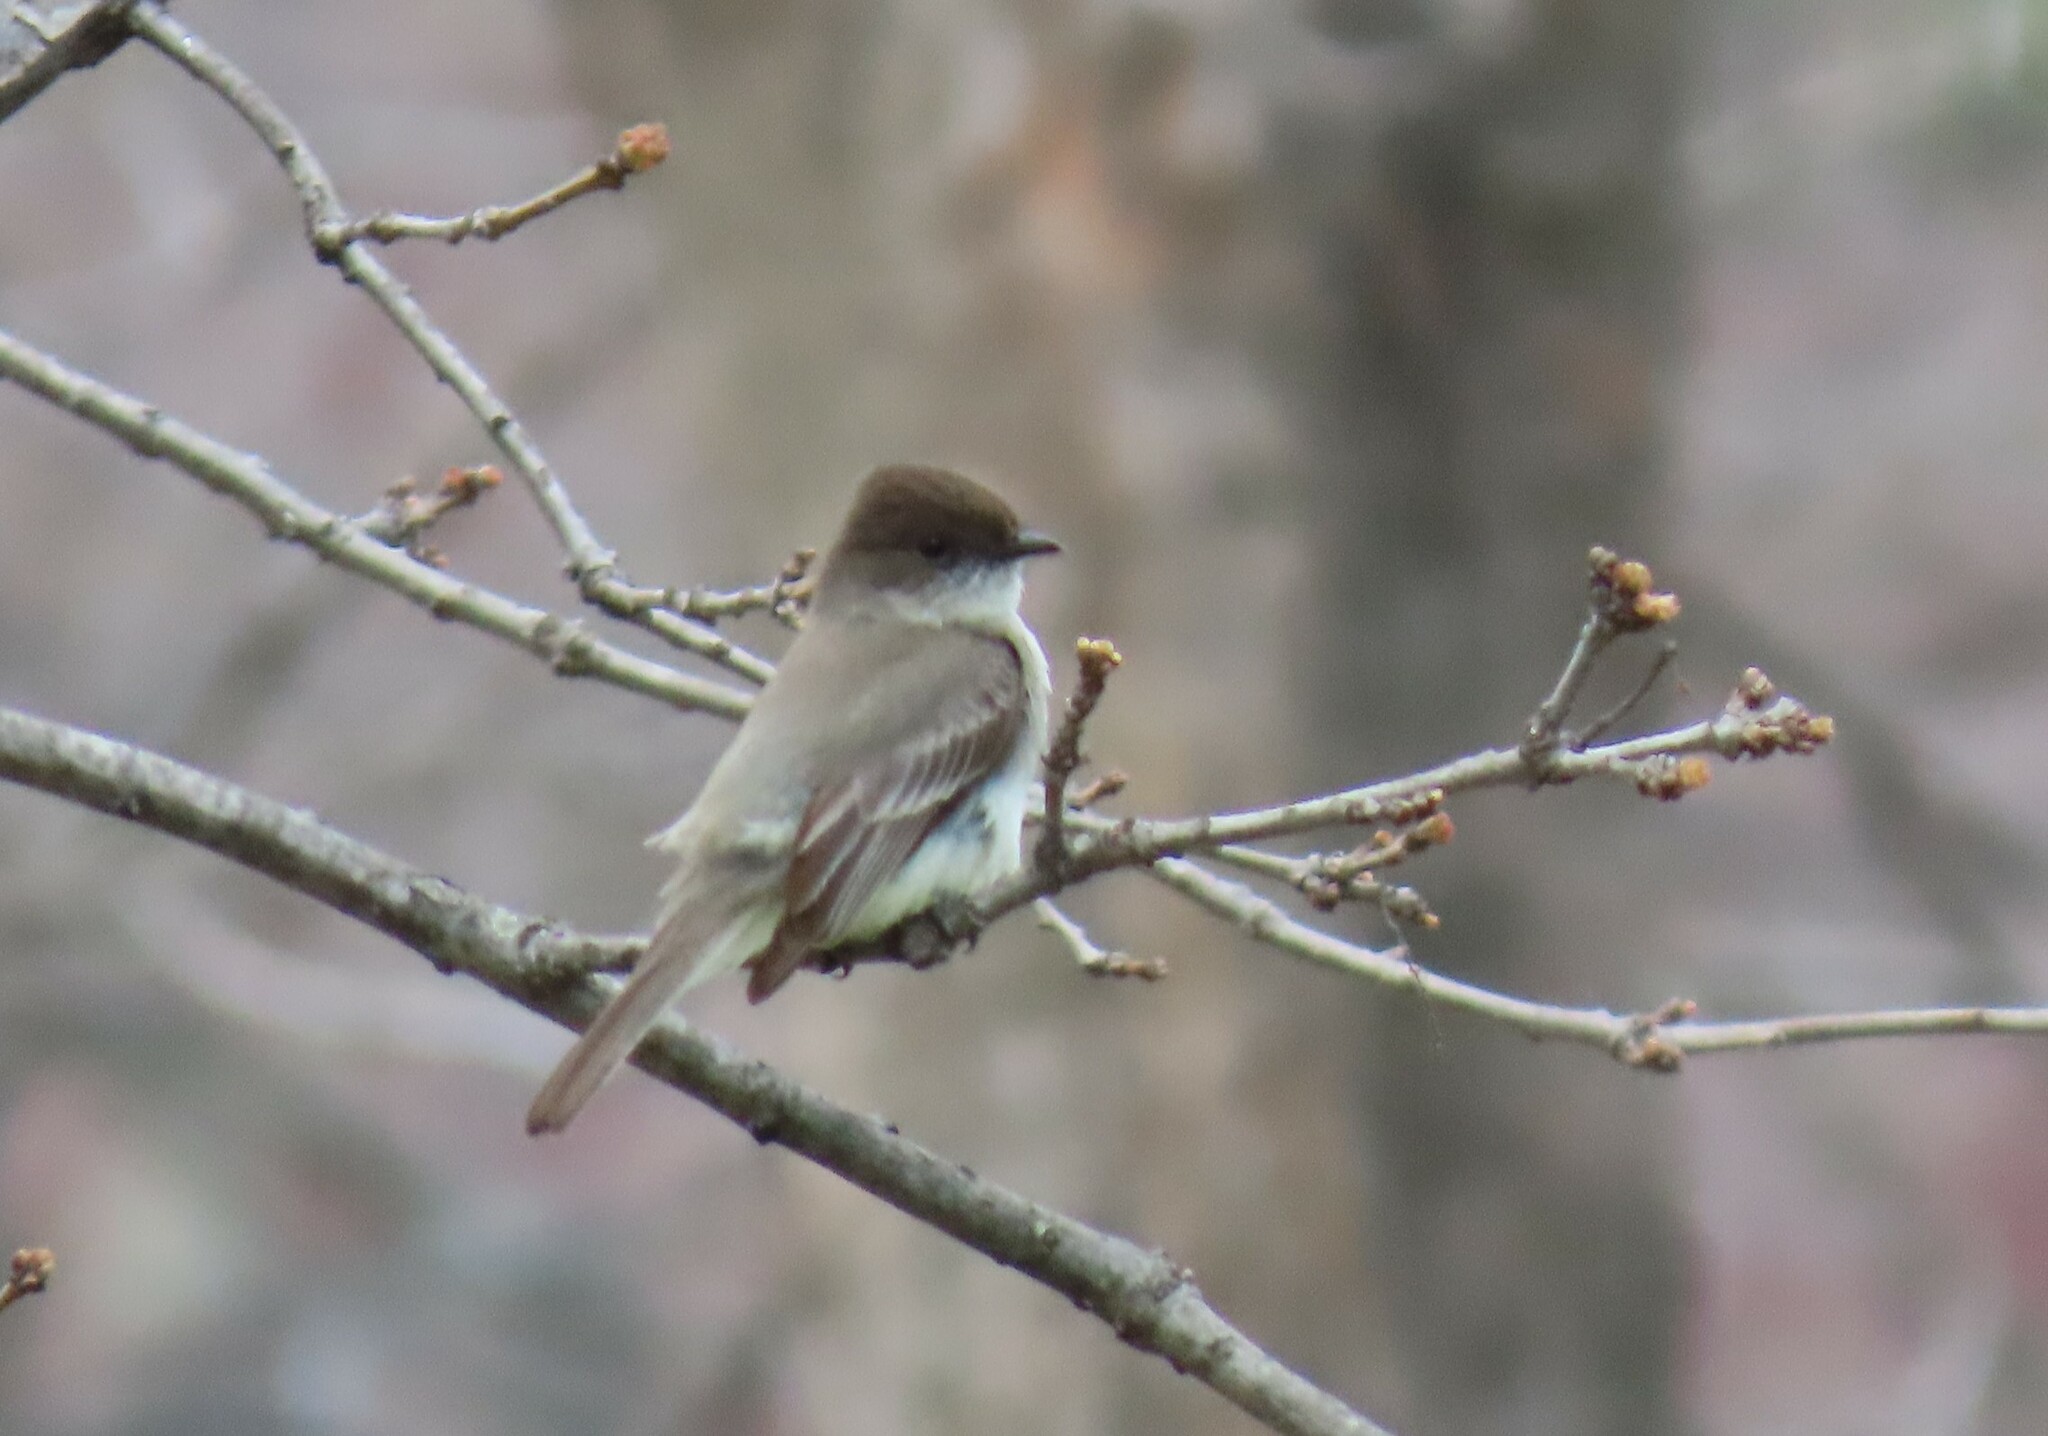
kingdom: Animalia
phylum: Chordata
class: Aves
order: Passeriformes
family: Tyrannidae
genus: Sayornis
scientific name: Sayornis phoebe
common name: Eastern phoebe
